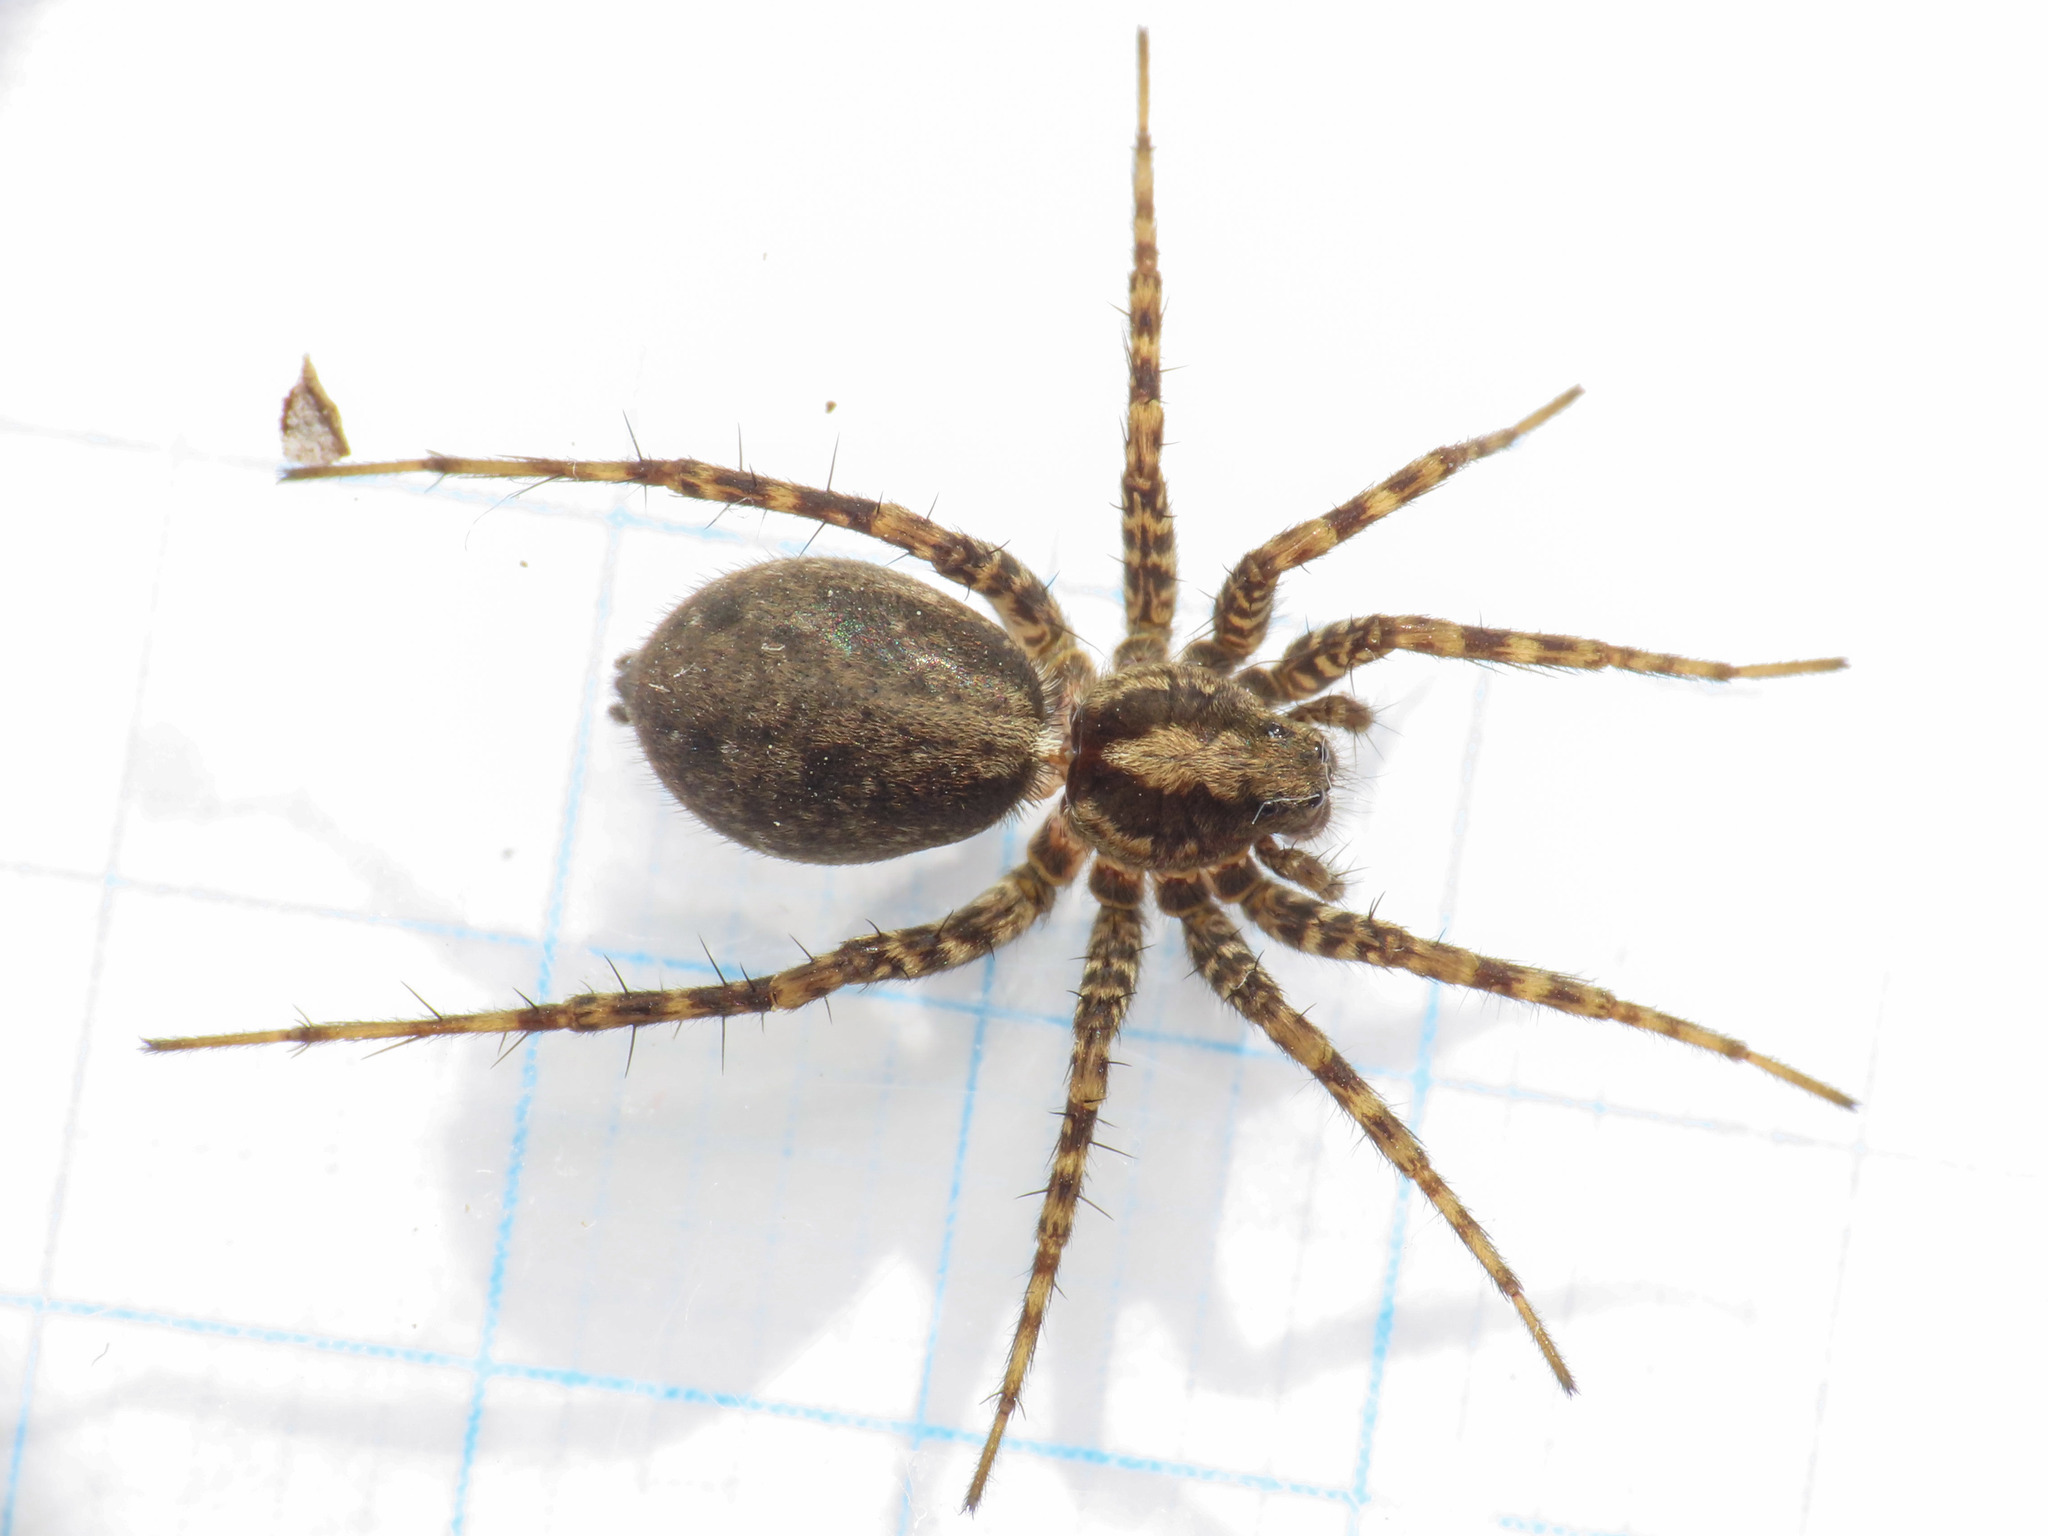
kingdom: Animalia
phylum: Arthropoda
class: Arachnida
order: Araneae
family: Lycosidae
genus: Pardosa
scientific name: Pardosa amentata
